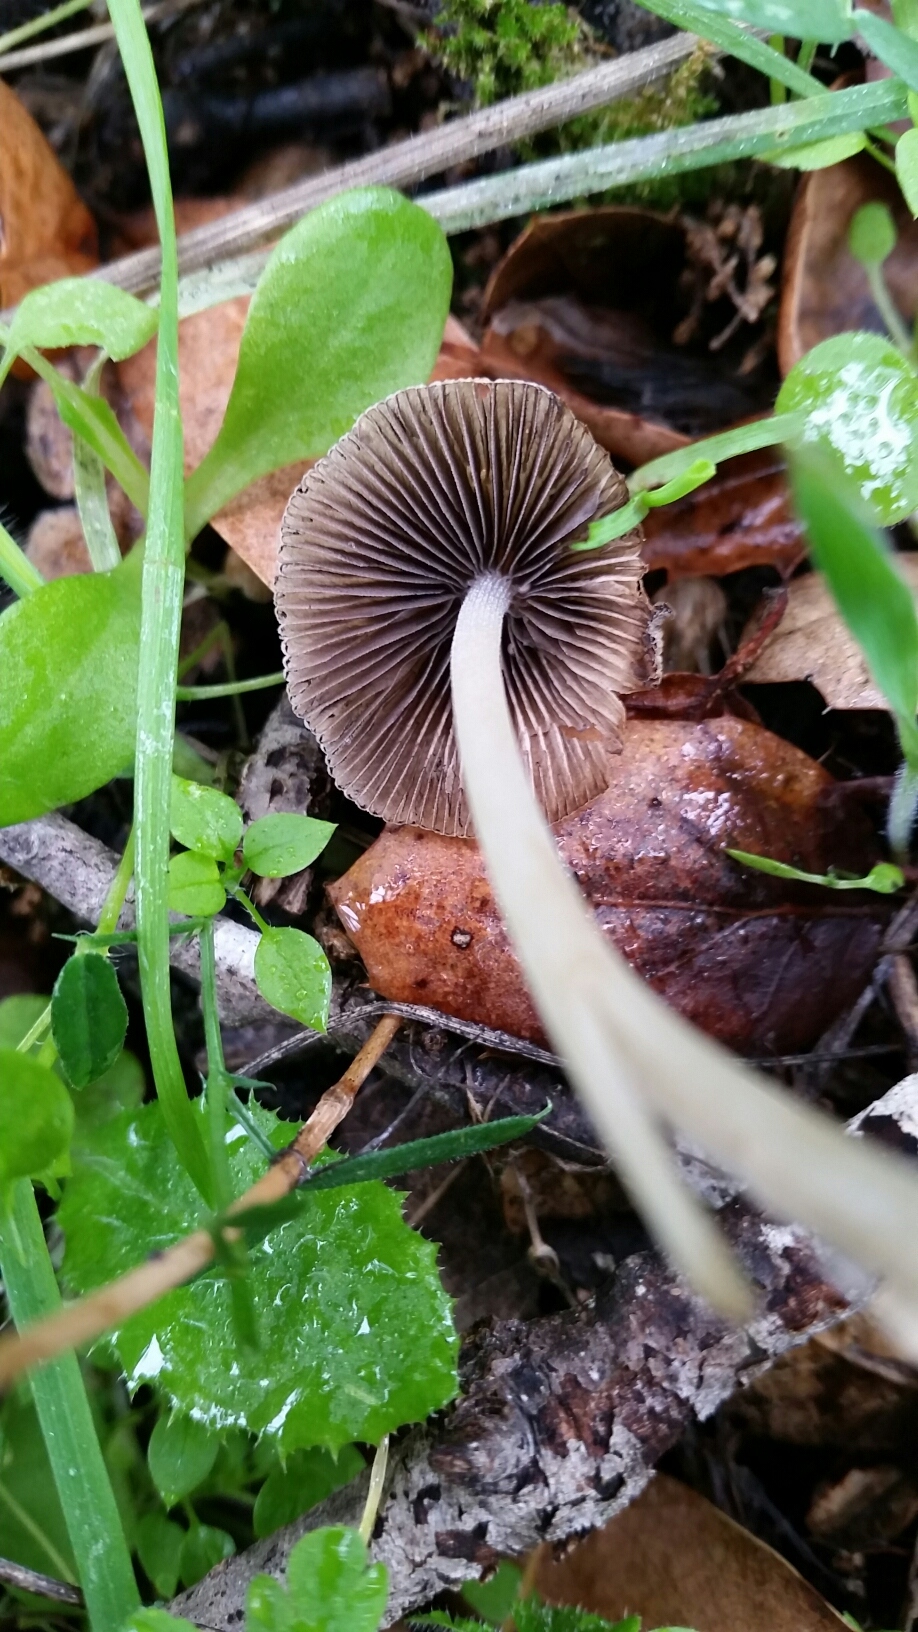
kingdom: Fungi
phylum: Basidiomycota
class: Agaricomycetes
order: Agaricales
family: Psathyrellaceae
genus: Tulosesus
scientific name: Tulosesus impatiens
